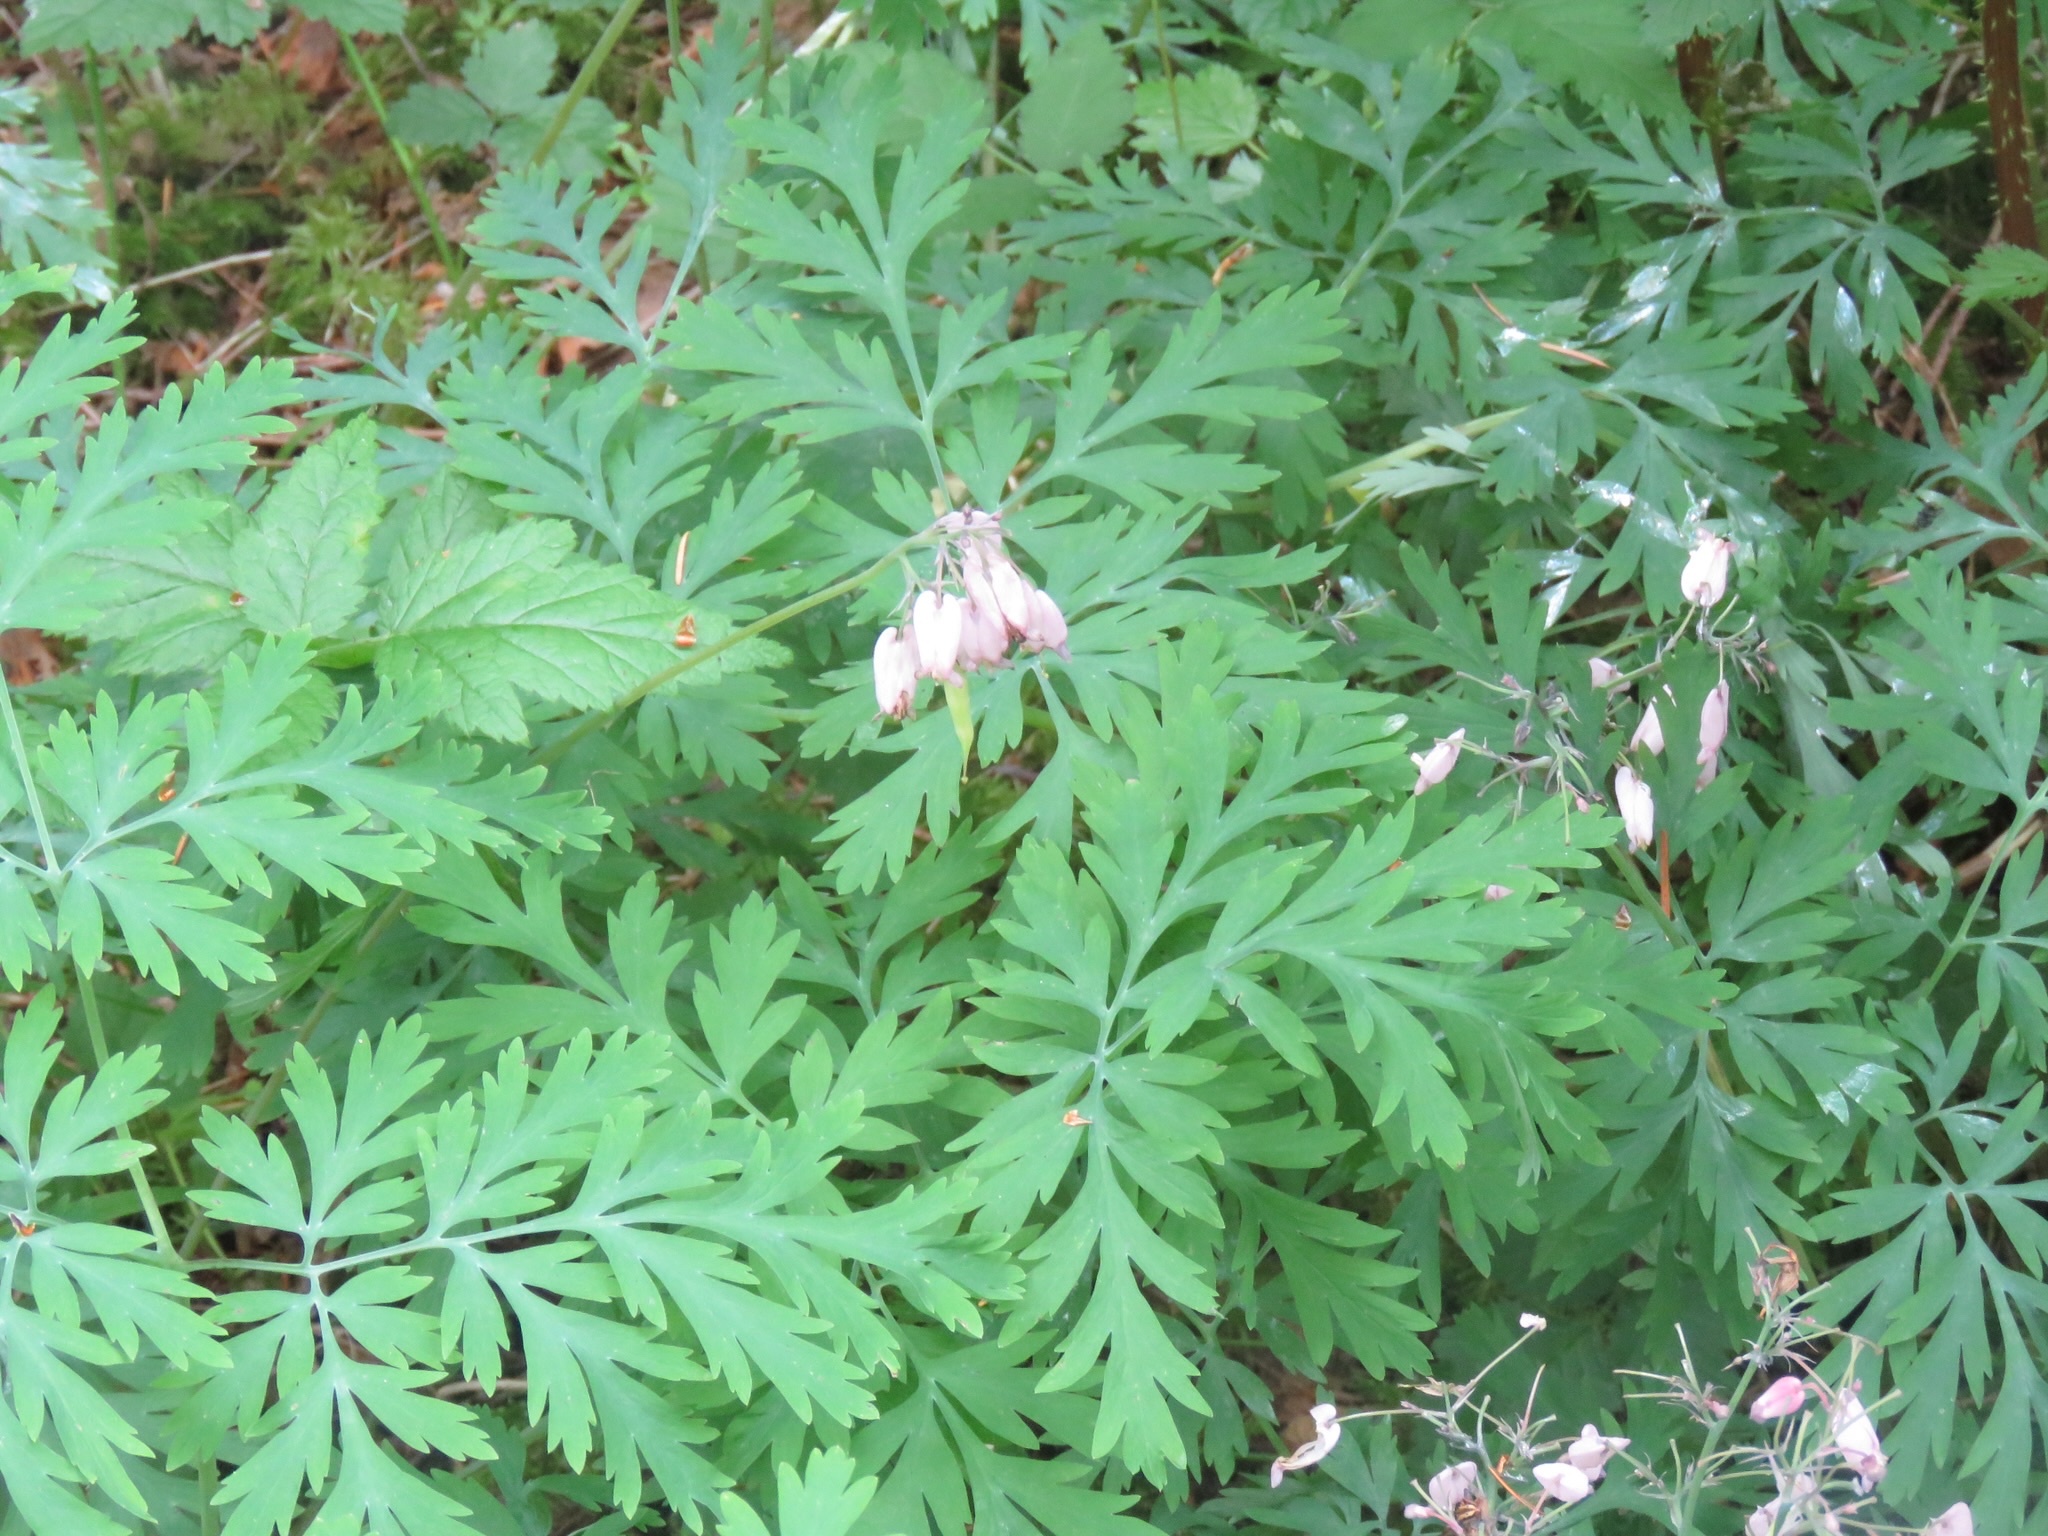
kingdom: Plantae
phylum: Tracheophyta
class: Magnoliopsida
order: Ranunculales
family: Papaveraceae
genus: Dicentra
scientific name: Dicentra formosa
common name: Bleeding-heart
